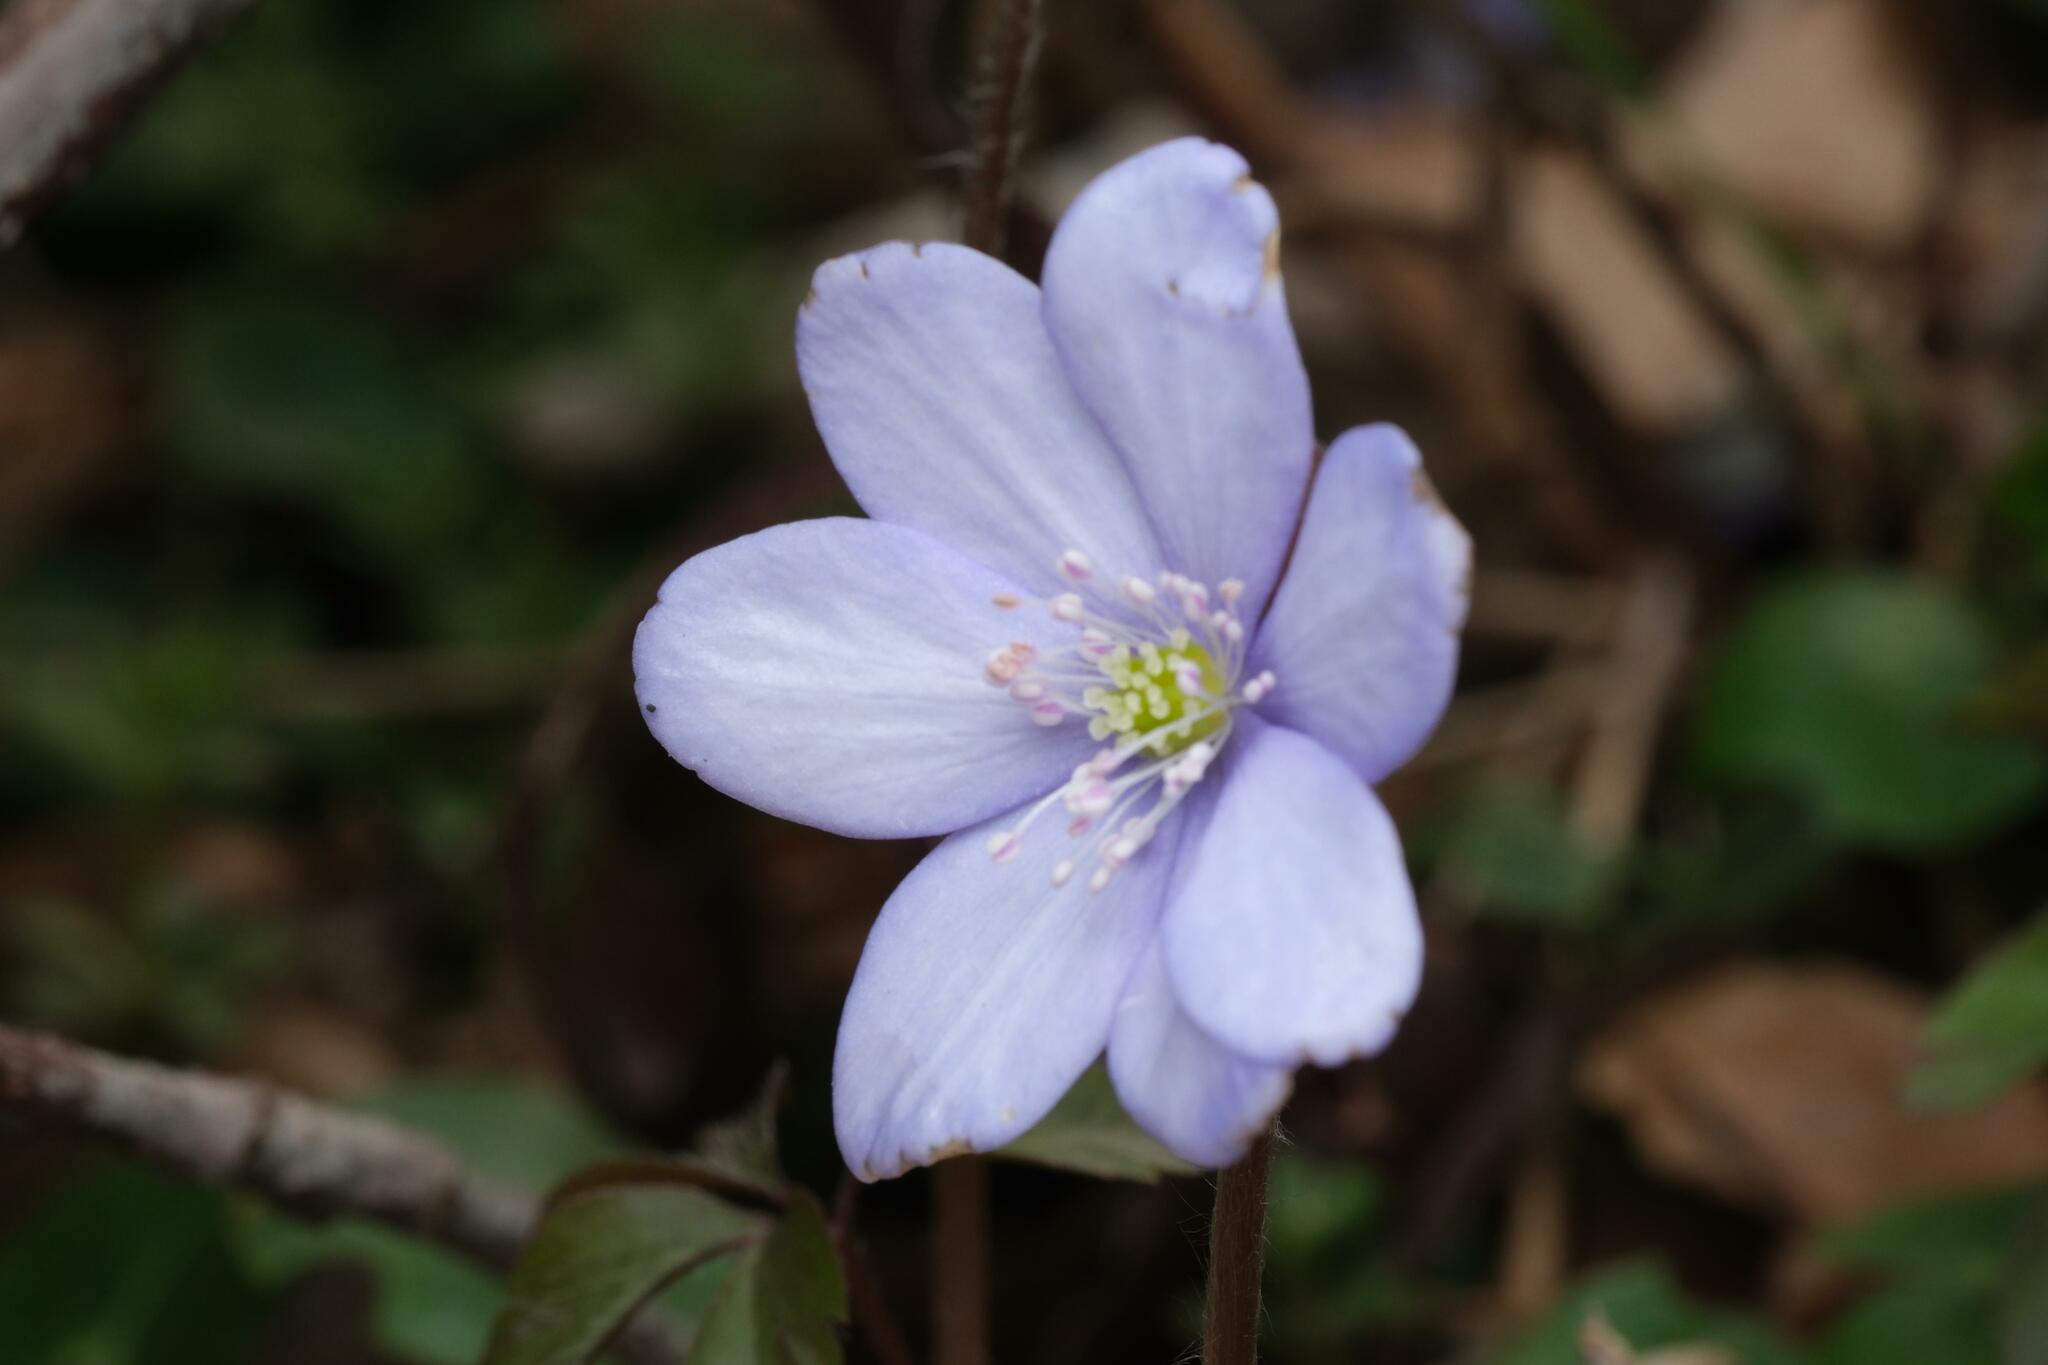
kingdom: Plantae
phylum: Tracheophyta
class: Magnoliopsida
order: Ranunculales
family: Ranunculaceae
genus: Hepatica
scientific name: Hepatica nobilis
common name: Liverleaf
